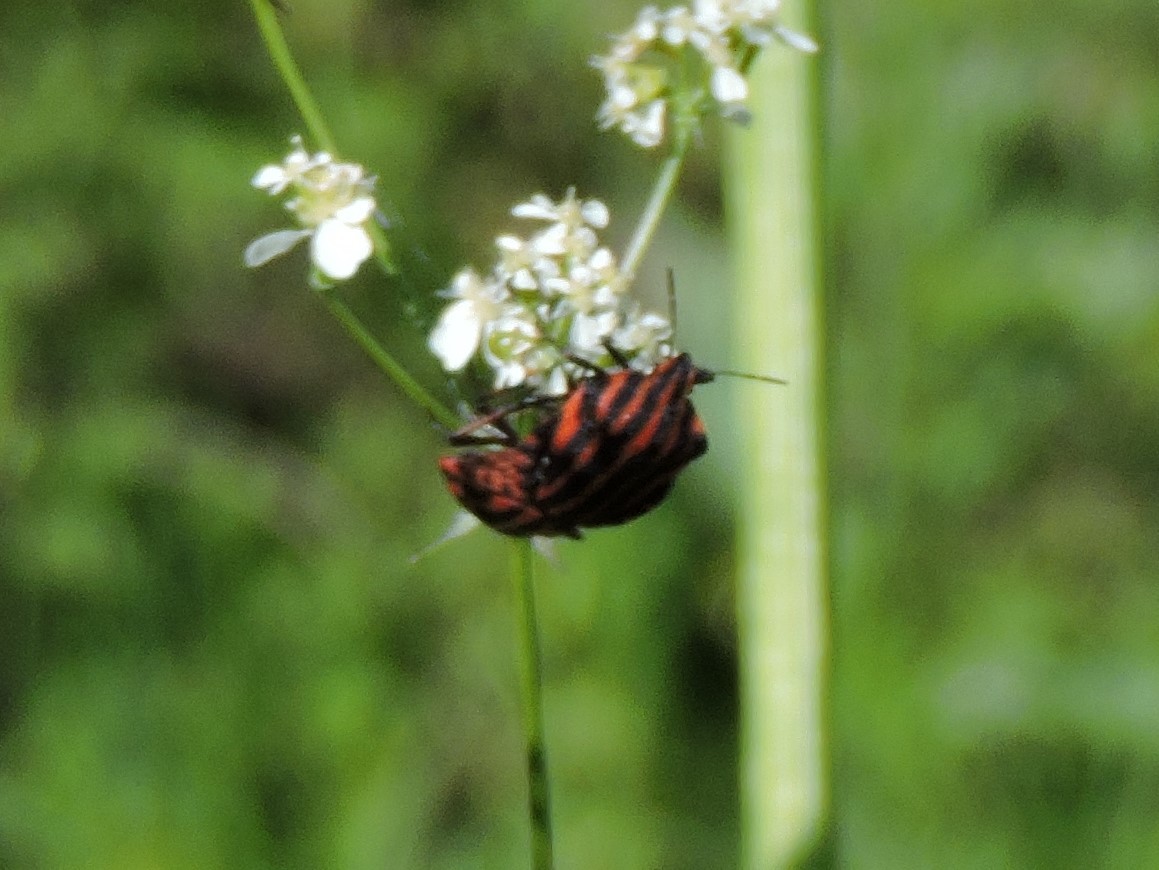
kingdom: Animalia
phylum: Arthropoda
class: Insecta
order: Hemiptera
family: Pentatomidae
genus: Graphosoma
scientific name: Graphosoma italicum
